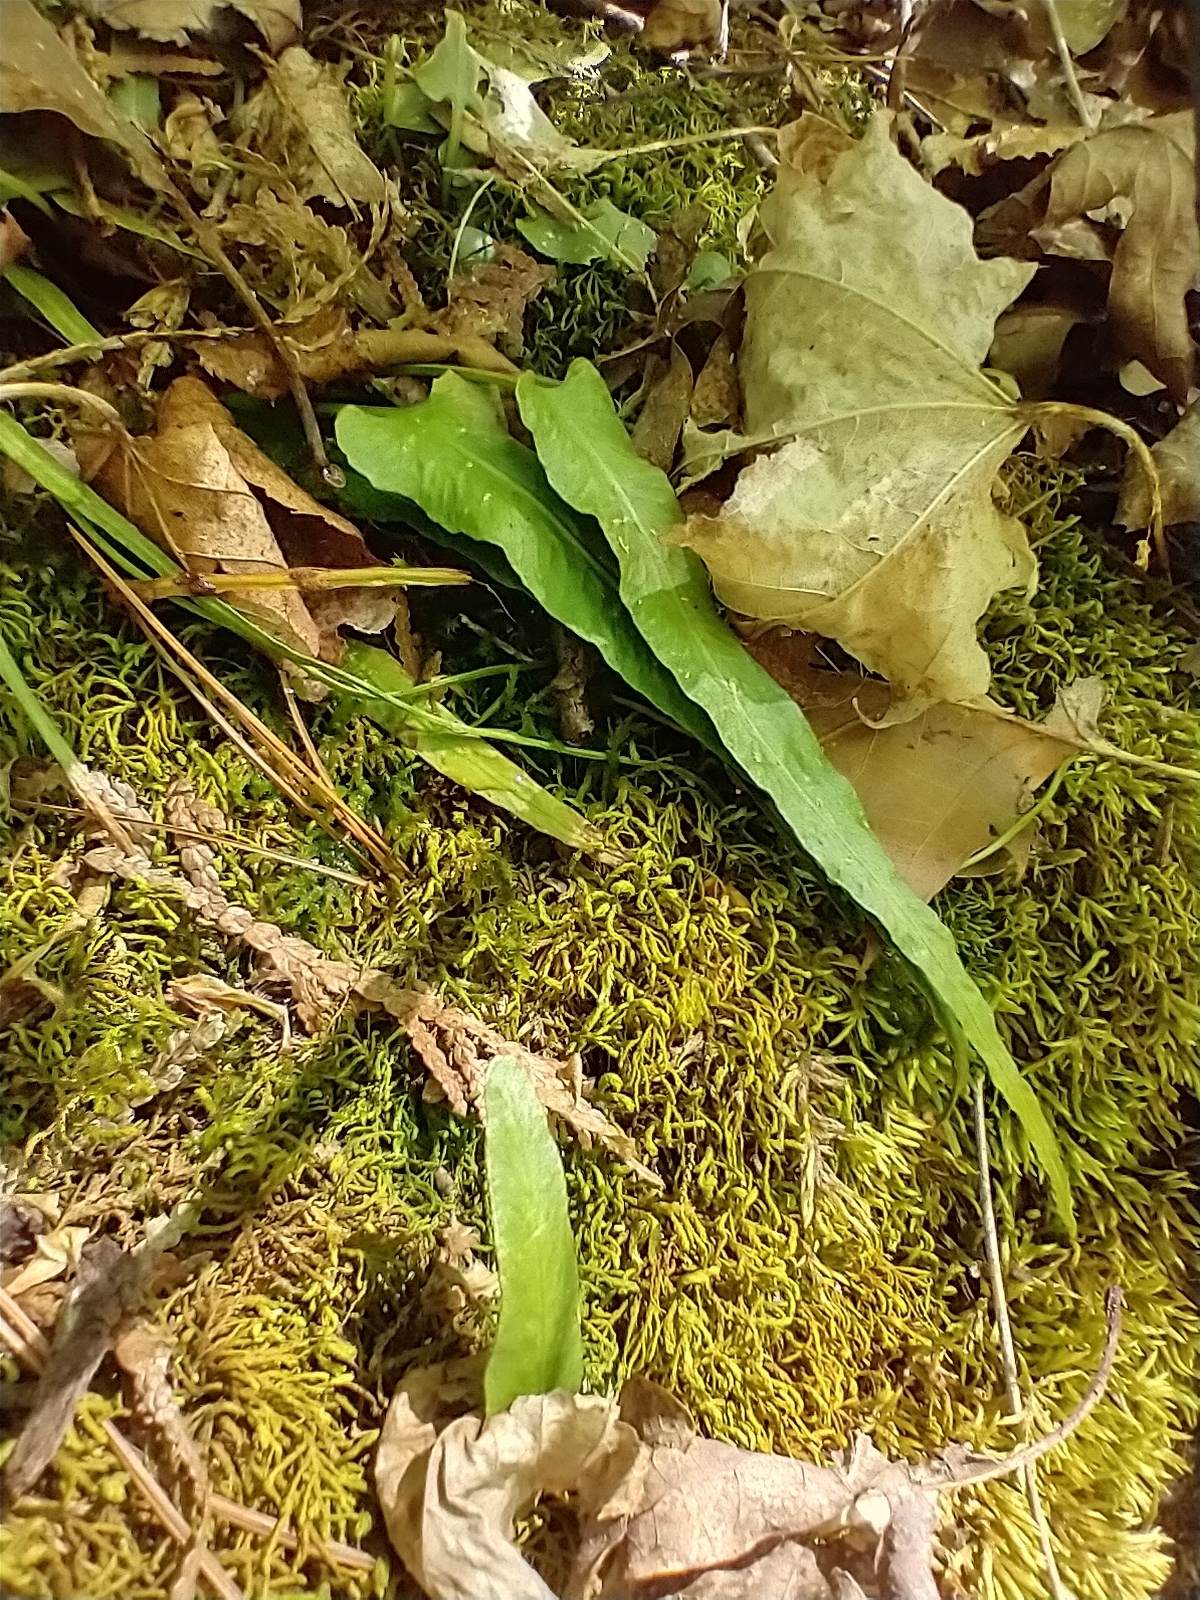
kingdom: Plantae
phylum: Tracheophyta
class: Polypodiopsida
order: Polypodiales
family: Aspleniaceae
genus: Asplenium
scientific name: Asplenium rhizophyllum
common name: Walking fern
